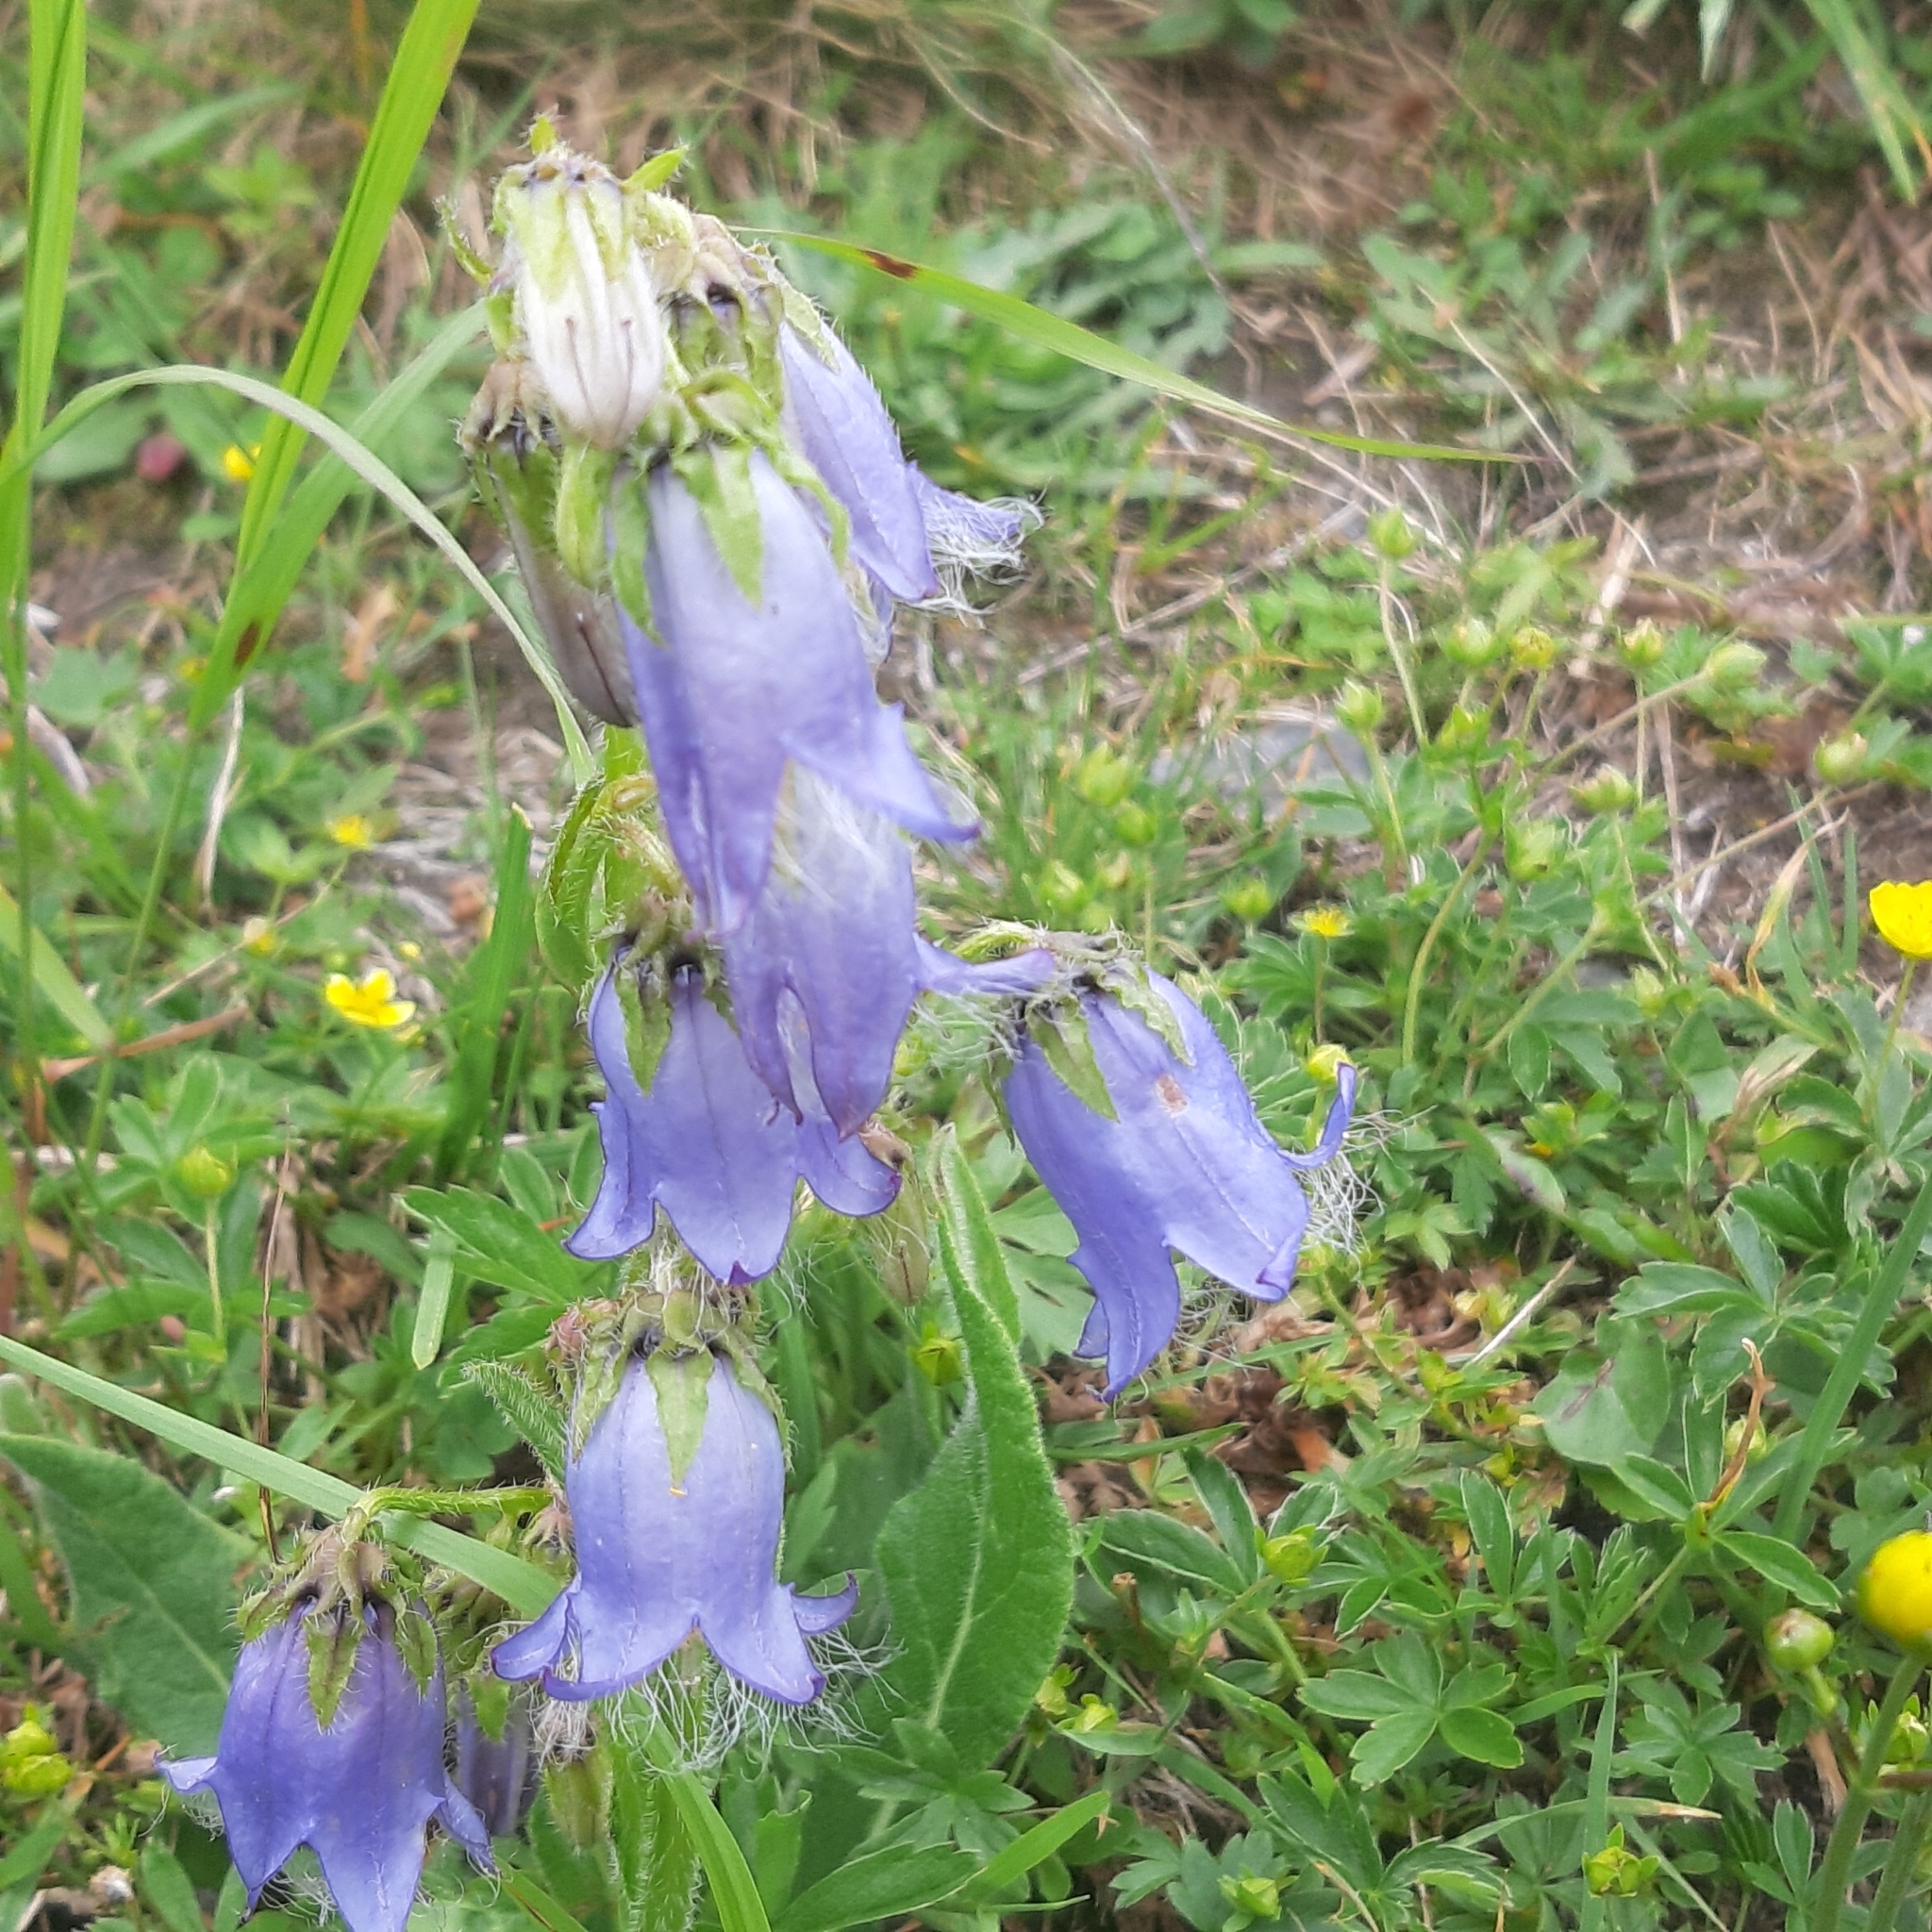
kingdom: Plantae
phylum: Tracheophyta
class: Magnoliopsida
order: Asterales
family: Campanulaceae
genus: Campanula
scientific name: Campanula barbata
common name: Bearded bellflower
